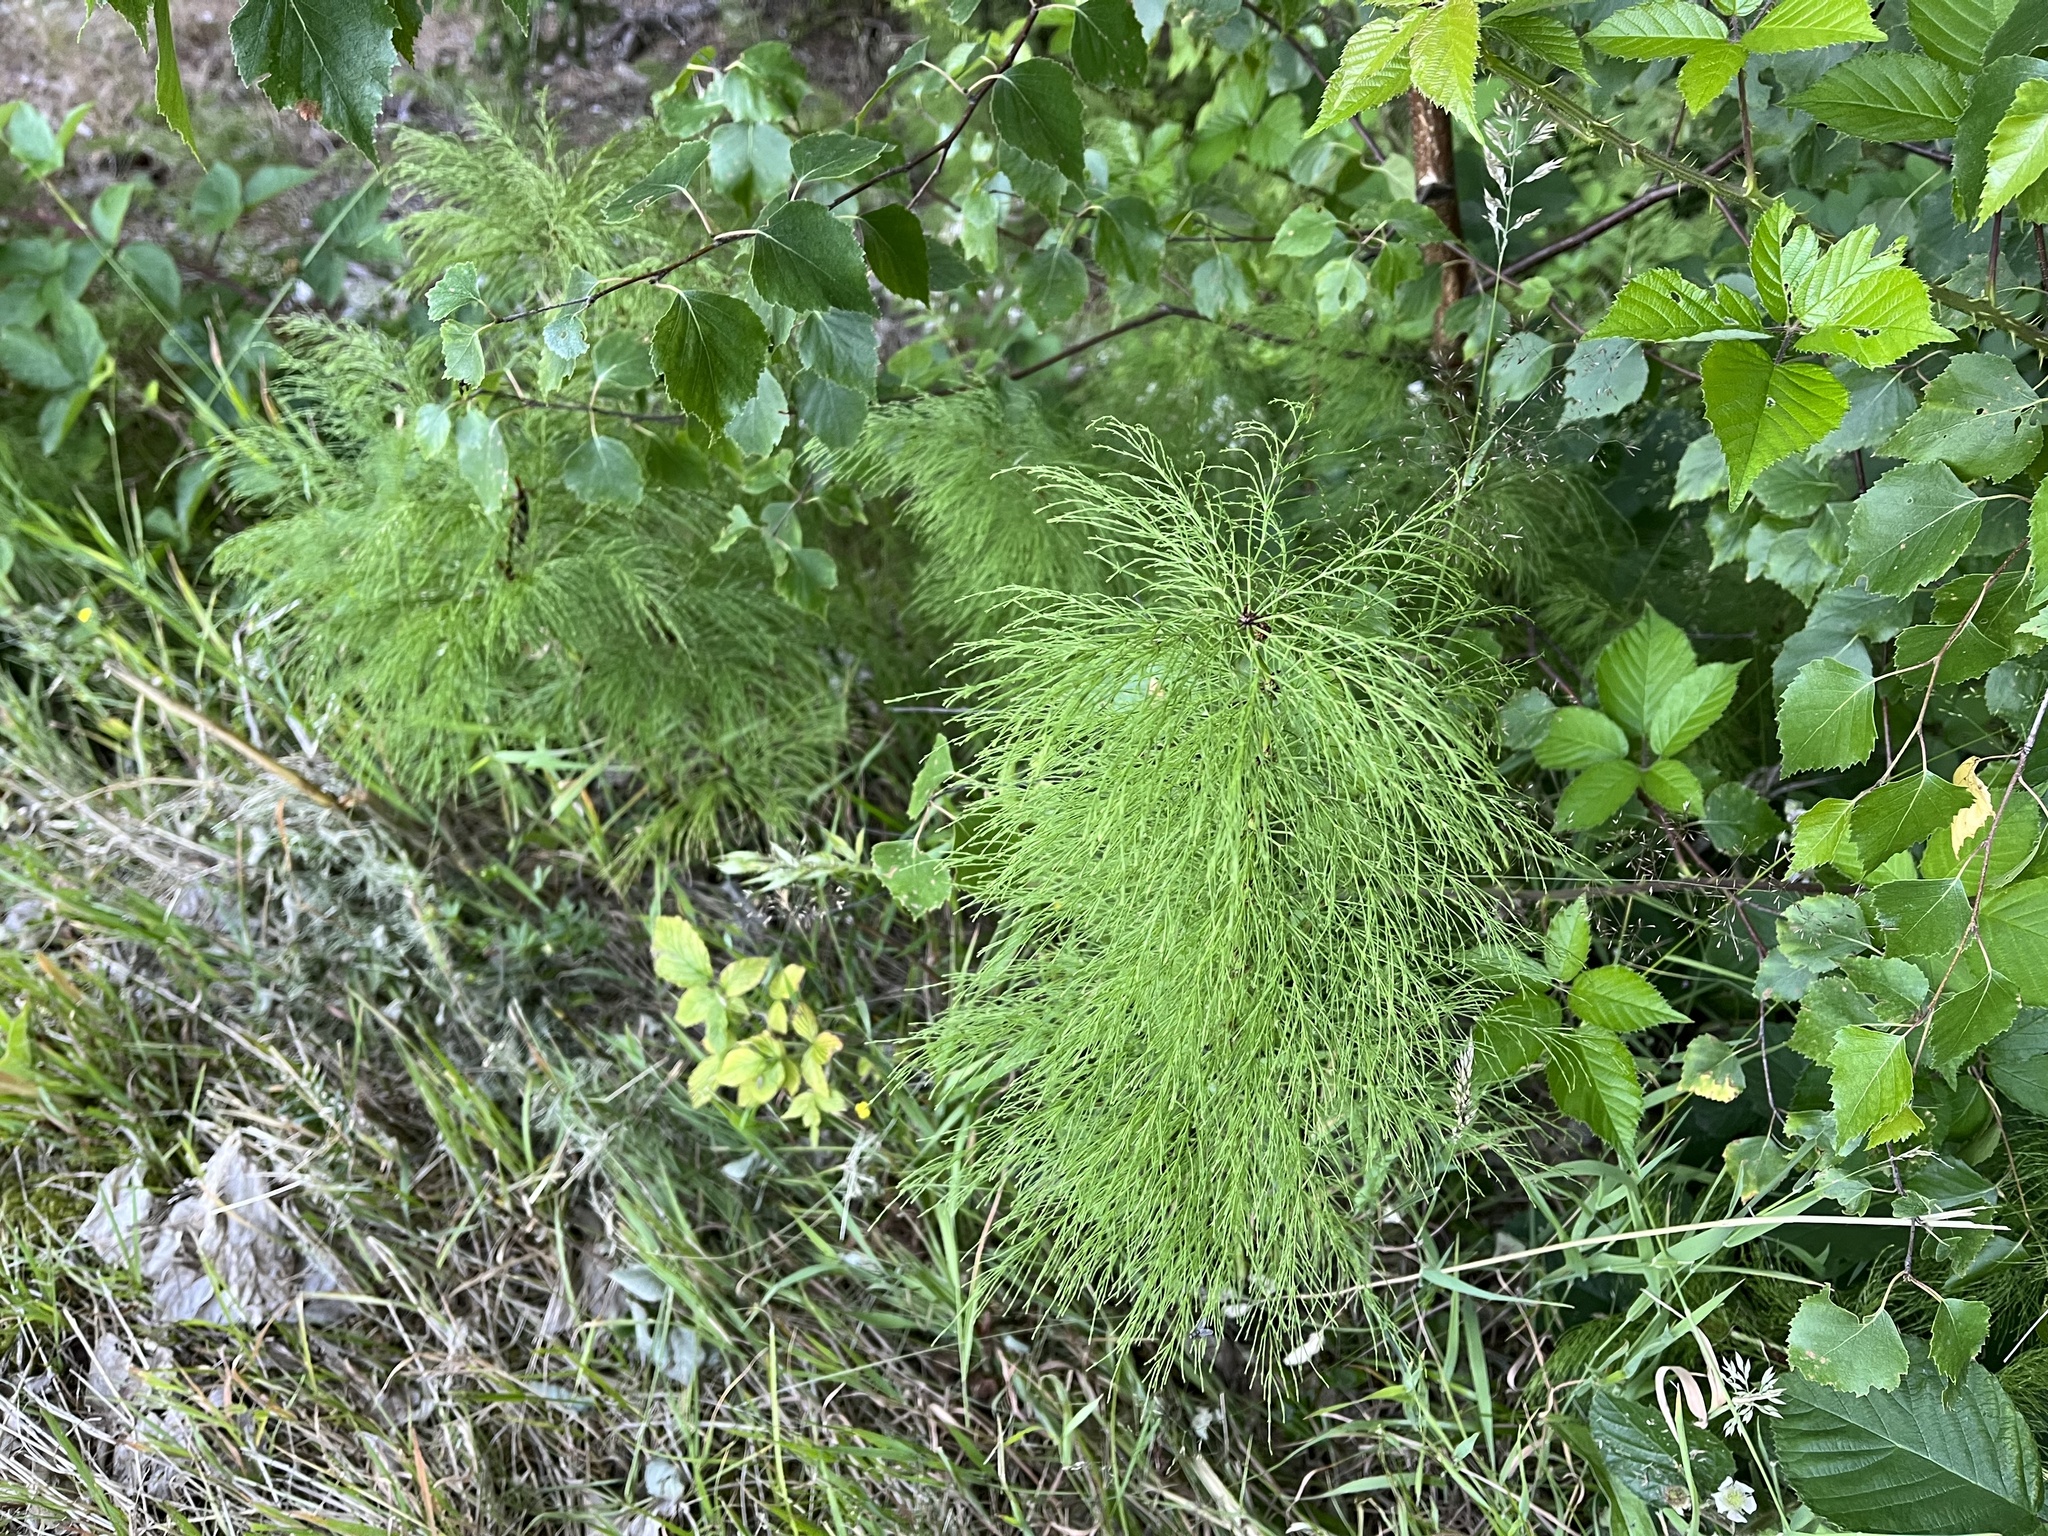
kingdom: Plantae
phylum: Tracheophyta
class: Polypodiopsida
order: Equisetales
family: Equisetaceae
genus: Equisetum
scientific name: Equisetum sylvaticum
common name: Wood horsetail
